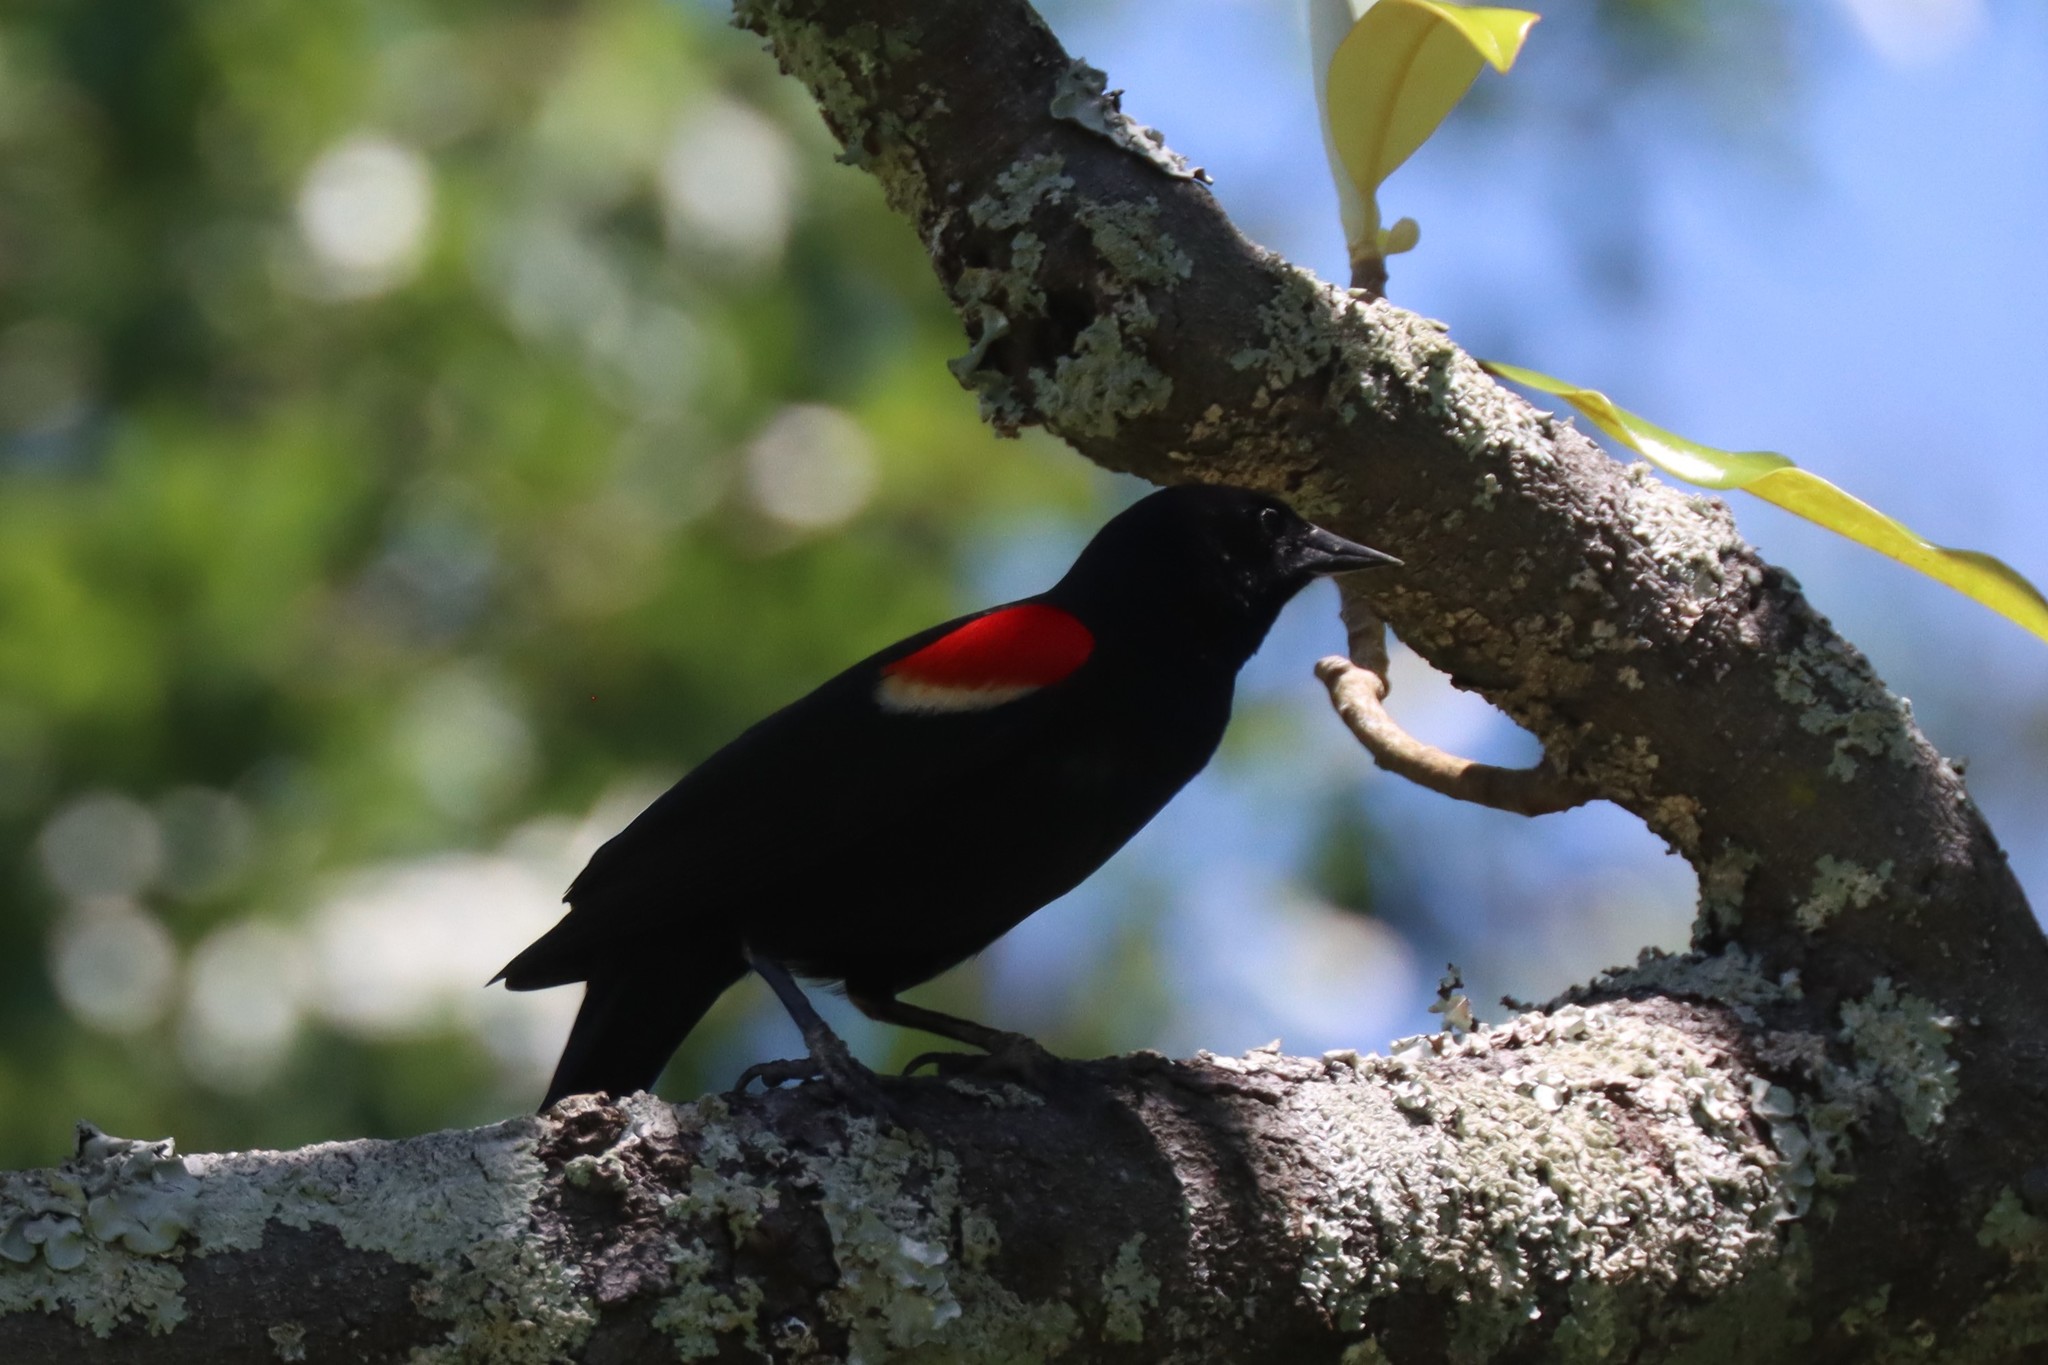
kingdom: Animalia
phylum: Chordata
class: Aves
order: Passeriformes
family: Icteridae
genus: Agelaius
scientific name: Agelaius phoeniceus
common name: Red-winged blackbird
